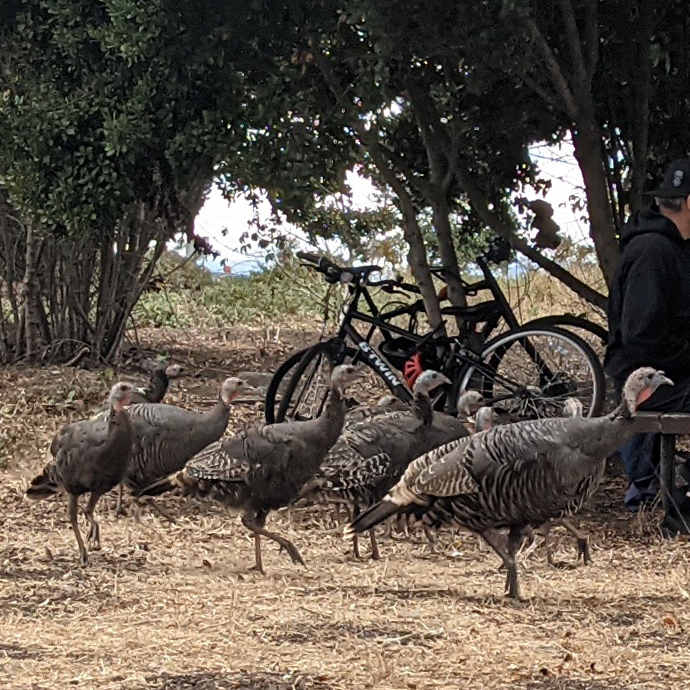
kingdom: Animalia
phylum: Chordata
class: Aves
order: Galliformes
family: Phasianidae
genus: Meleagris
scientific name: Meleagris gallopavo
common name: Wild turkey
